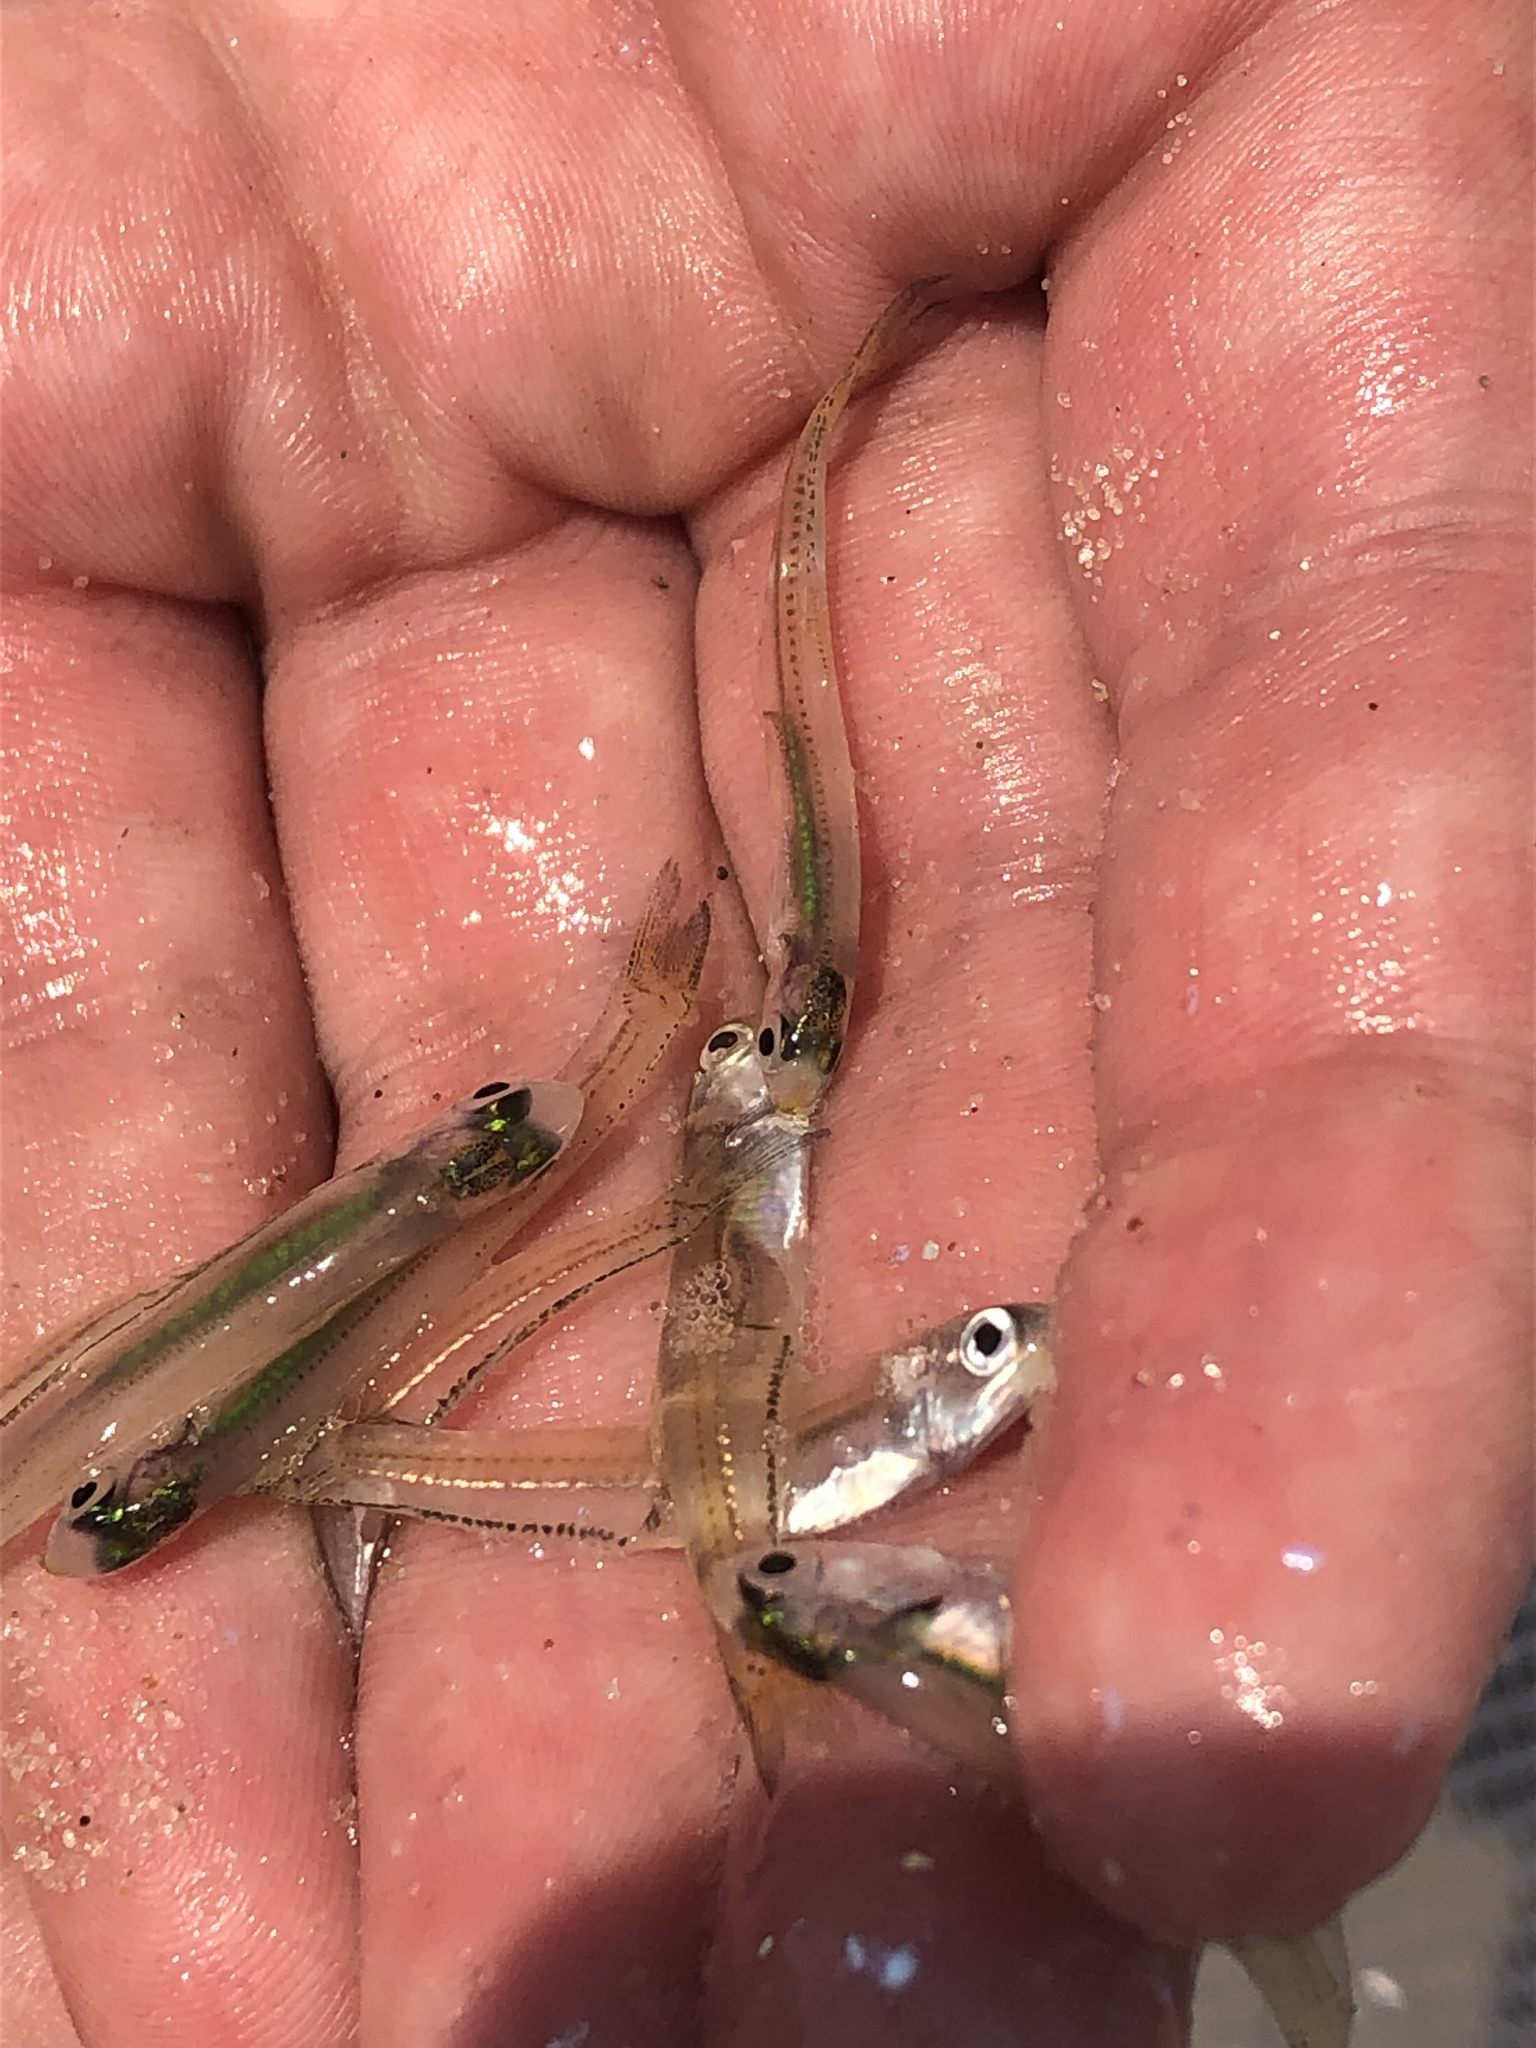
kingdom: Animalia
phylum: Chordata
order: Clupeiformes
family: Engraulidae
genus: Anchoa
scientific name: Anchoa mitchilli
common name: Bay anchovy
